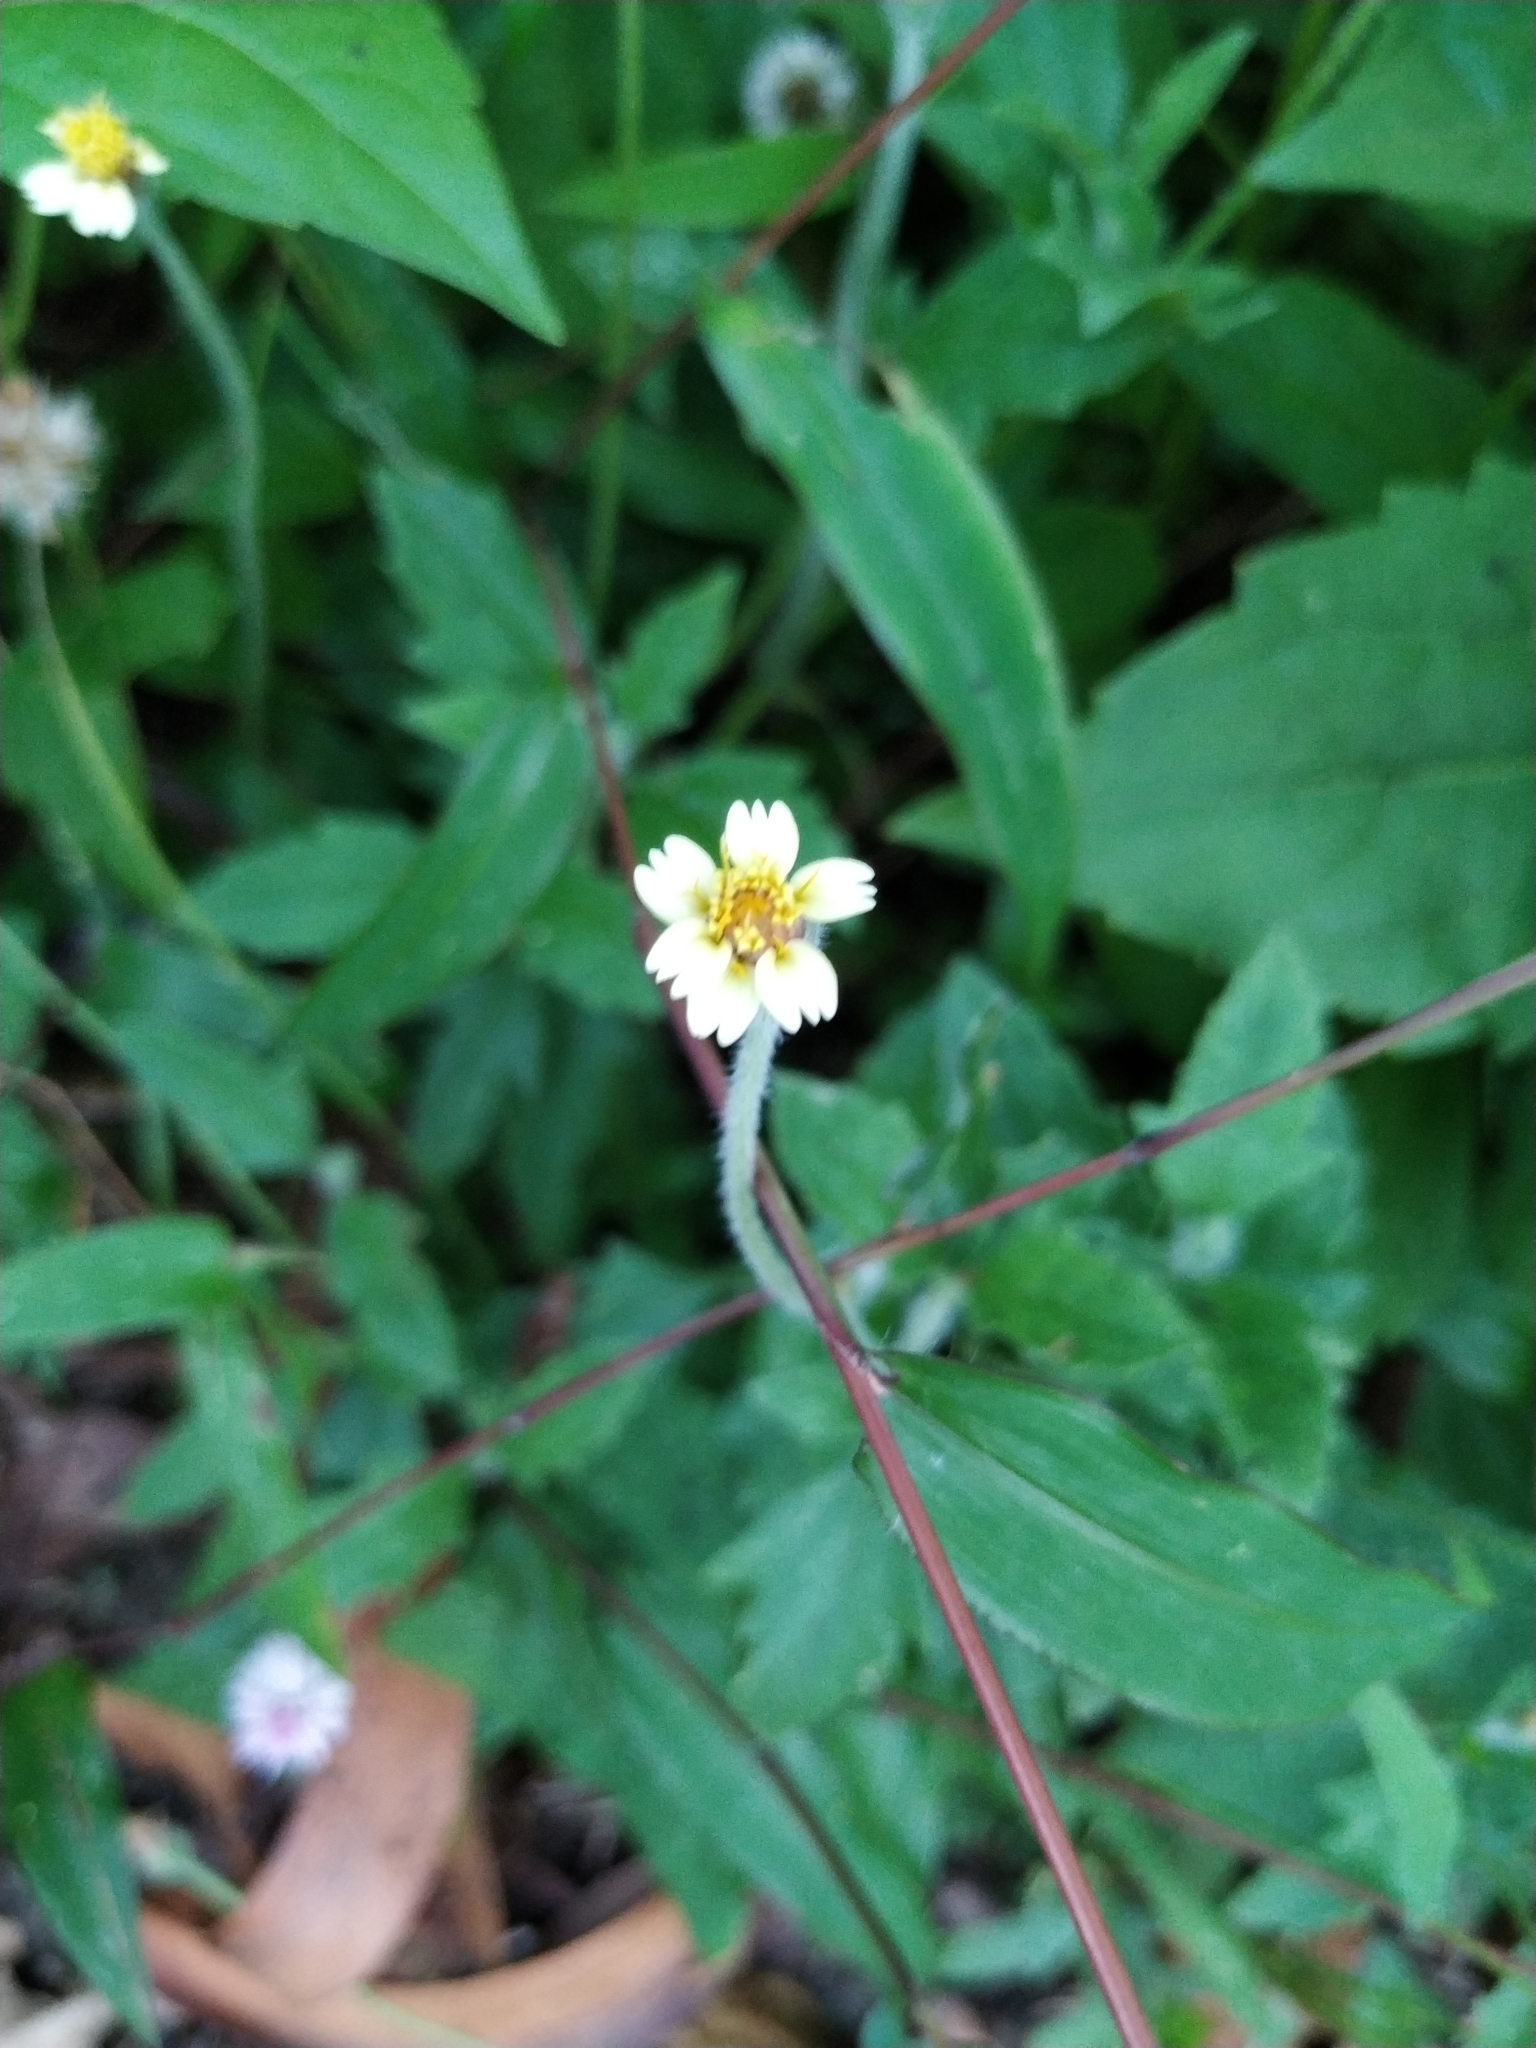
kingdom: Plantae
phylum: Tracheophyta
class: Magnoliopsida
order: Asterales
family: Asteraceae
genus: Tridax
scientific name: Tridax procumbens
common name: Coatbuttons
